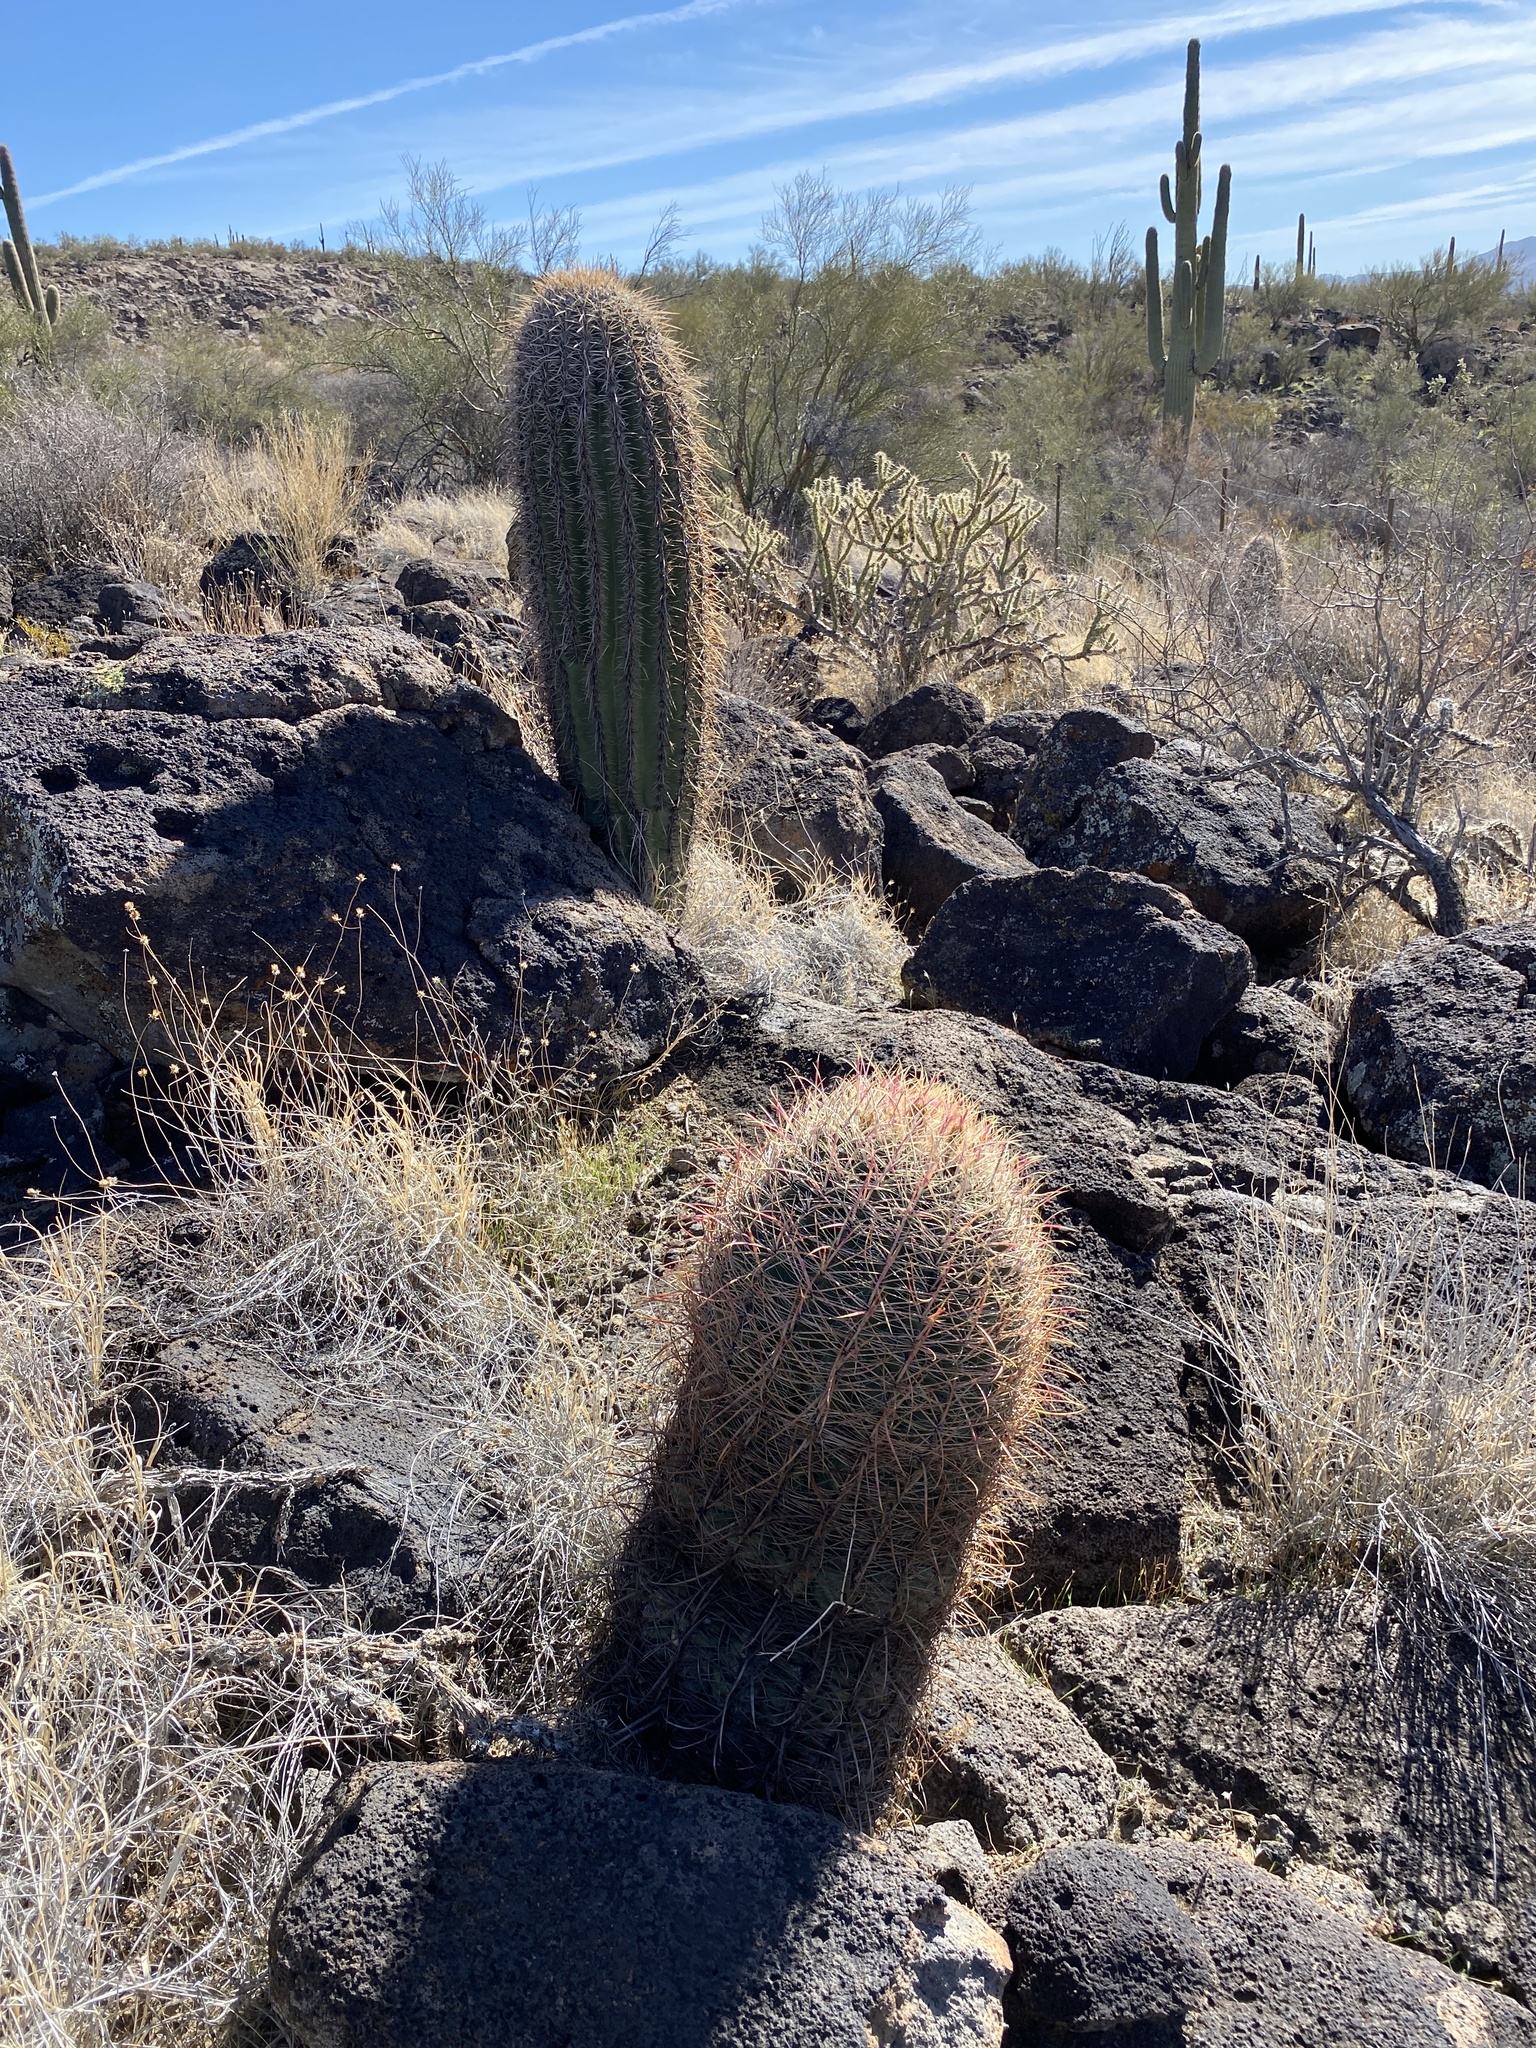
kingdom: Plantae
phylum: Tracheophyta
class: Magnoliopsida
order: Caryophyllales
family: Cactaceae
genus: Ferocactus
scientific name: Ferocactus cylindraceus
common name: California barrel cactus
